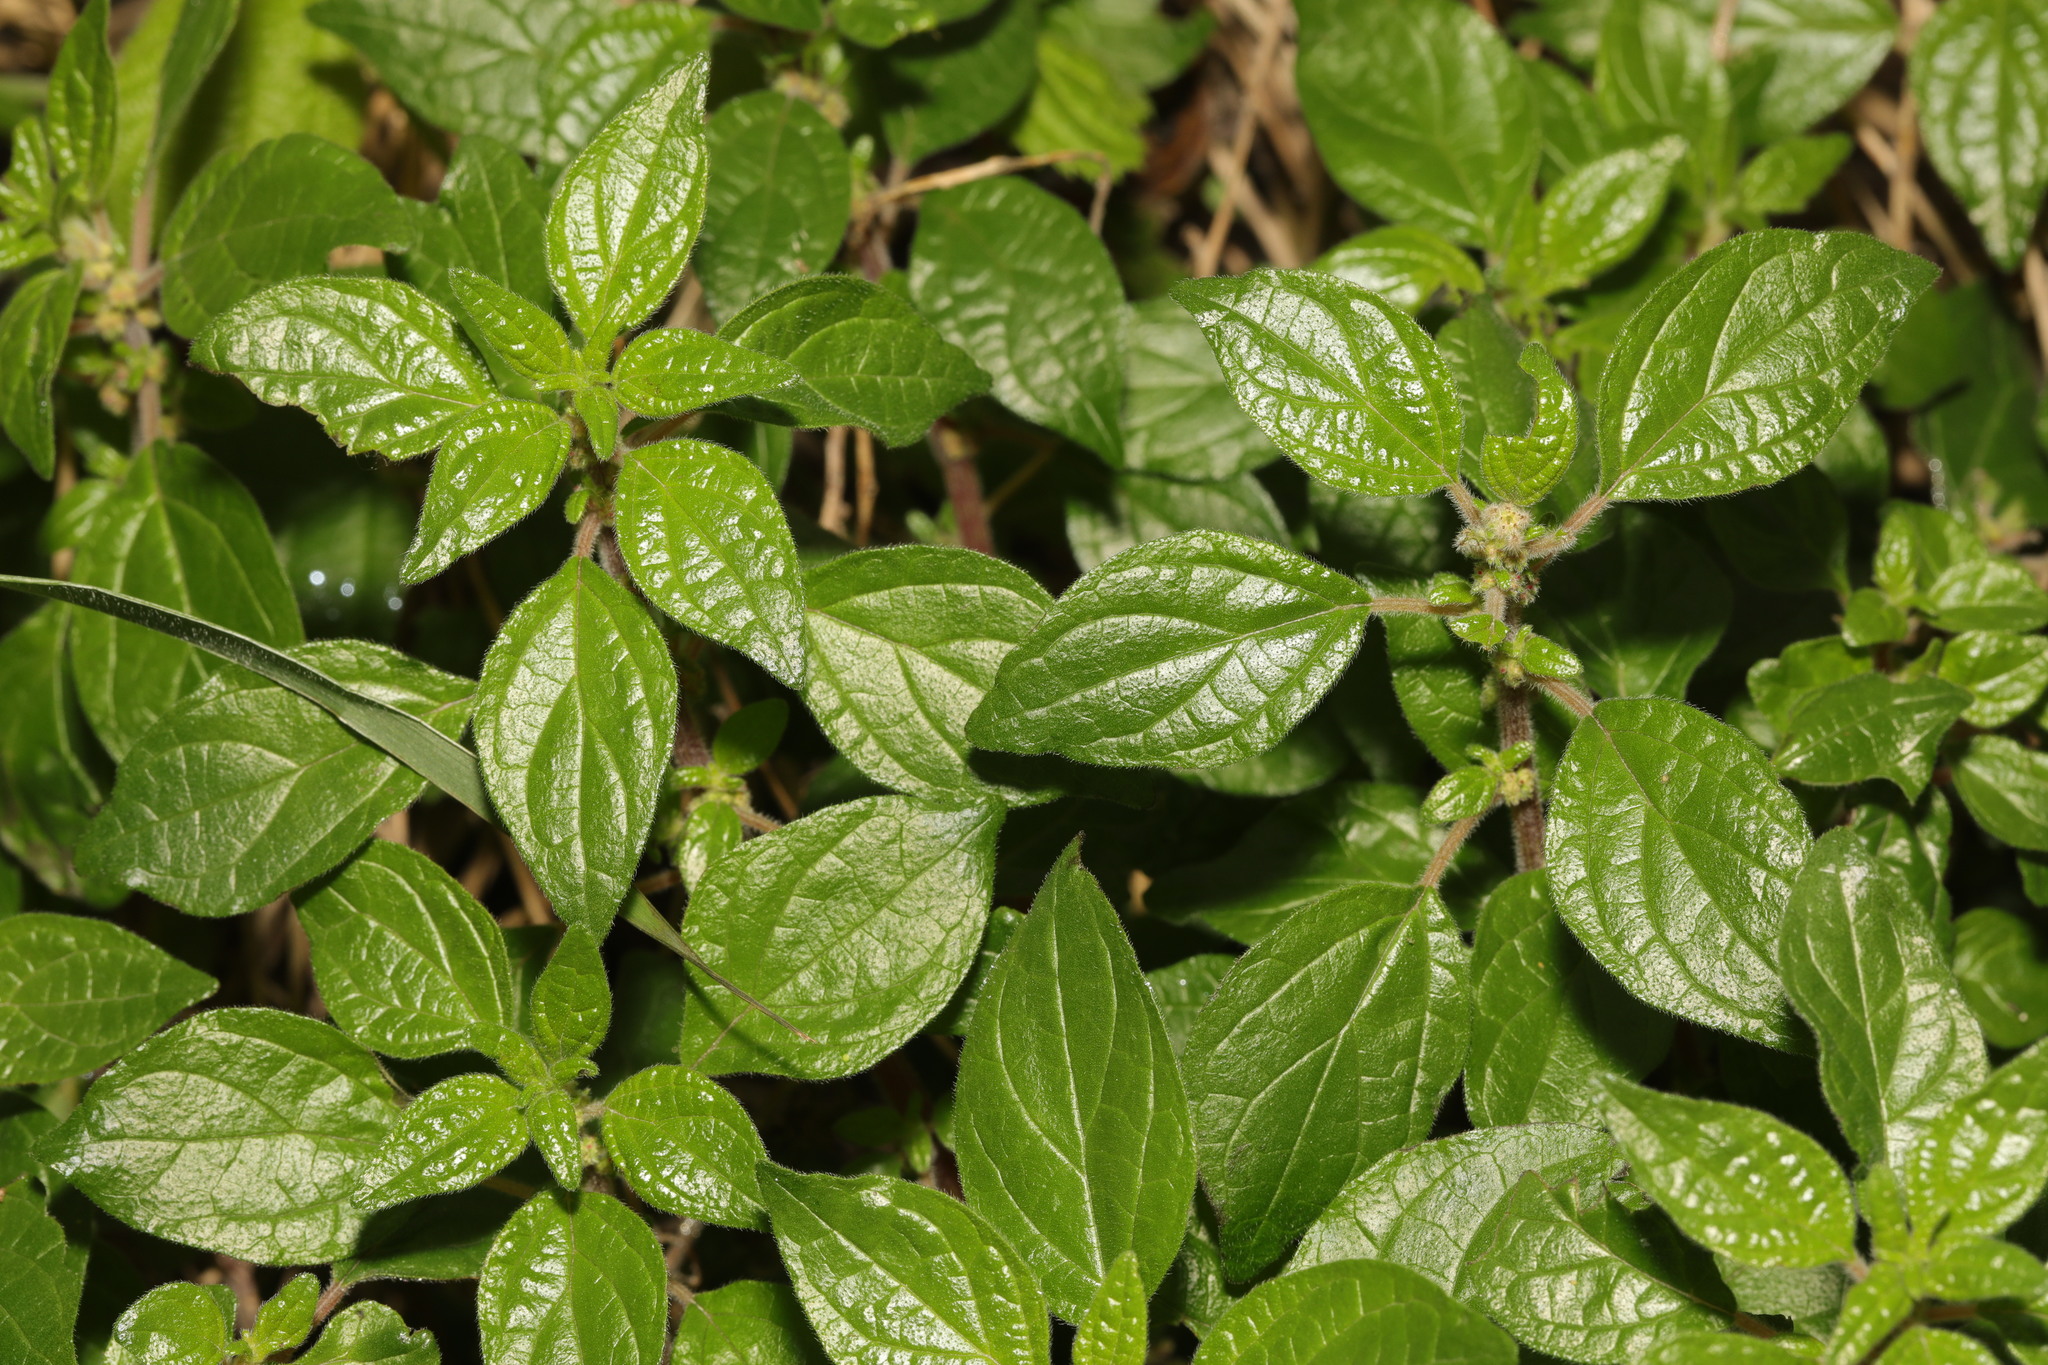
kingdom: Plantae
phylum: Tracheophyta
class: Magnoliopsida
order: Rosales
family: Urticaceae
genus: Parietaria
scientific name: Parietaria judaica
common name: Pellitory-of-the-wall
